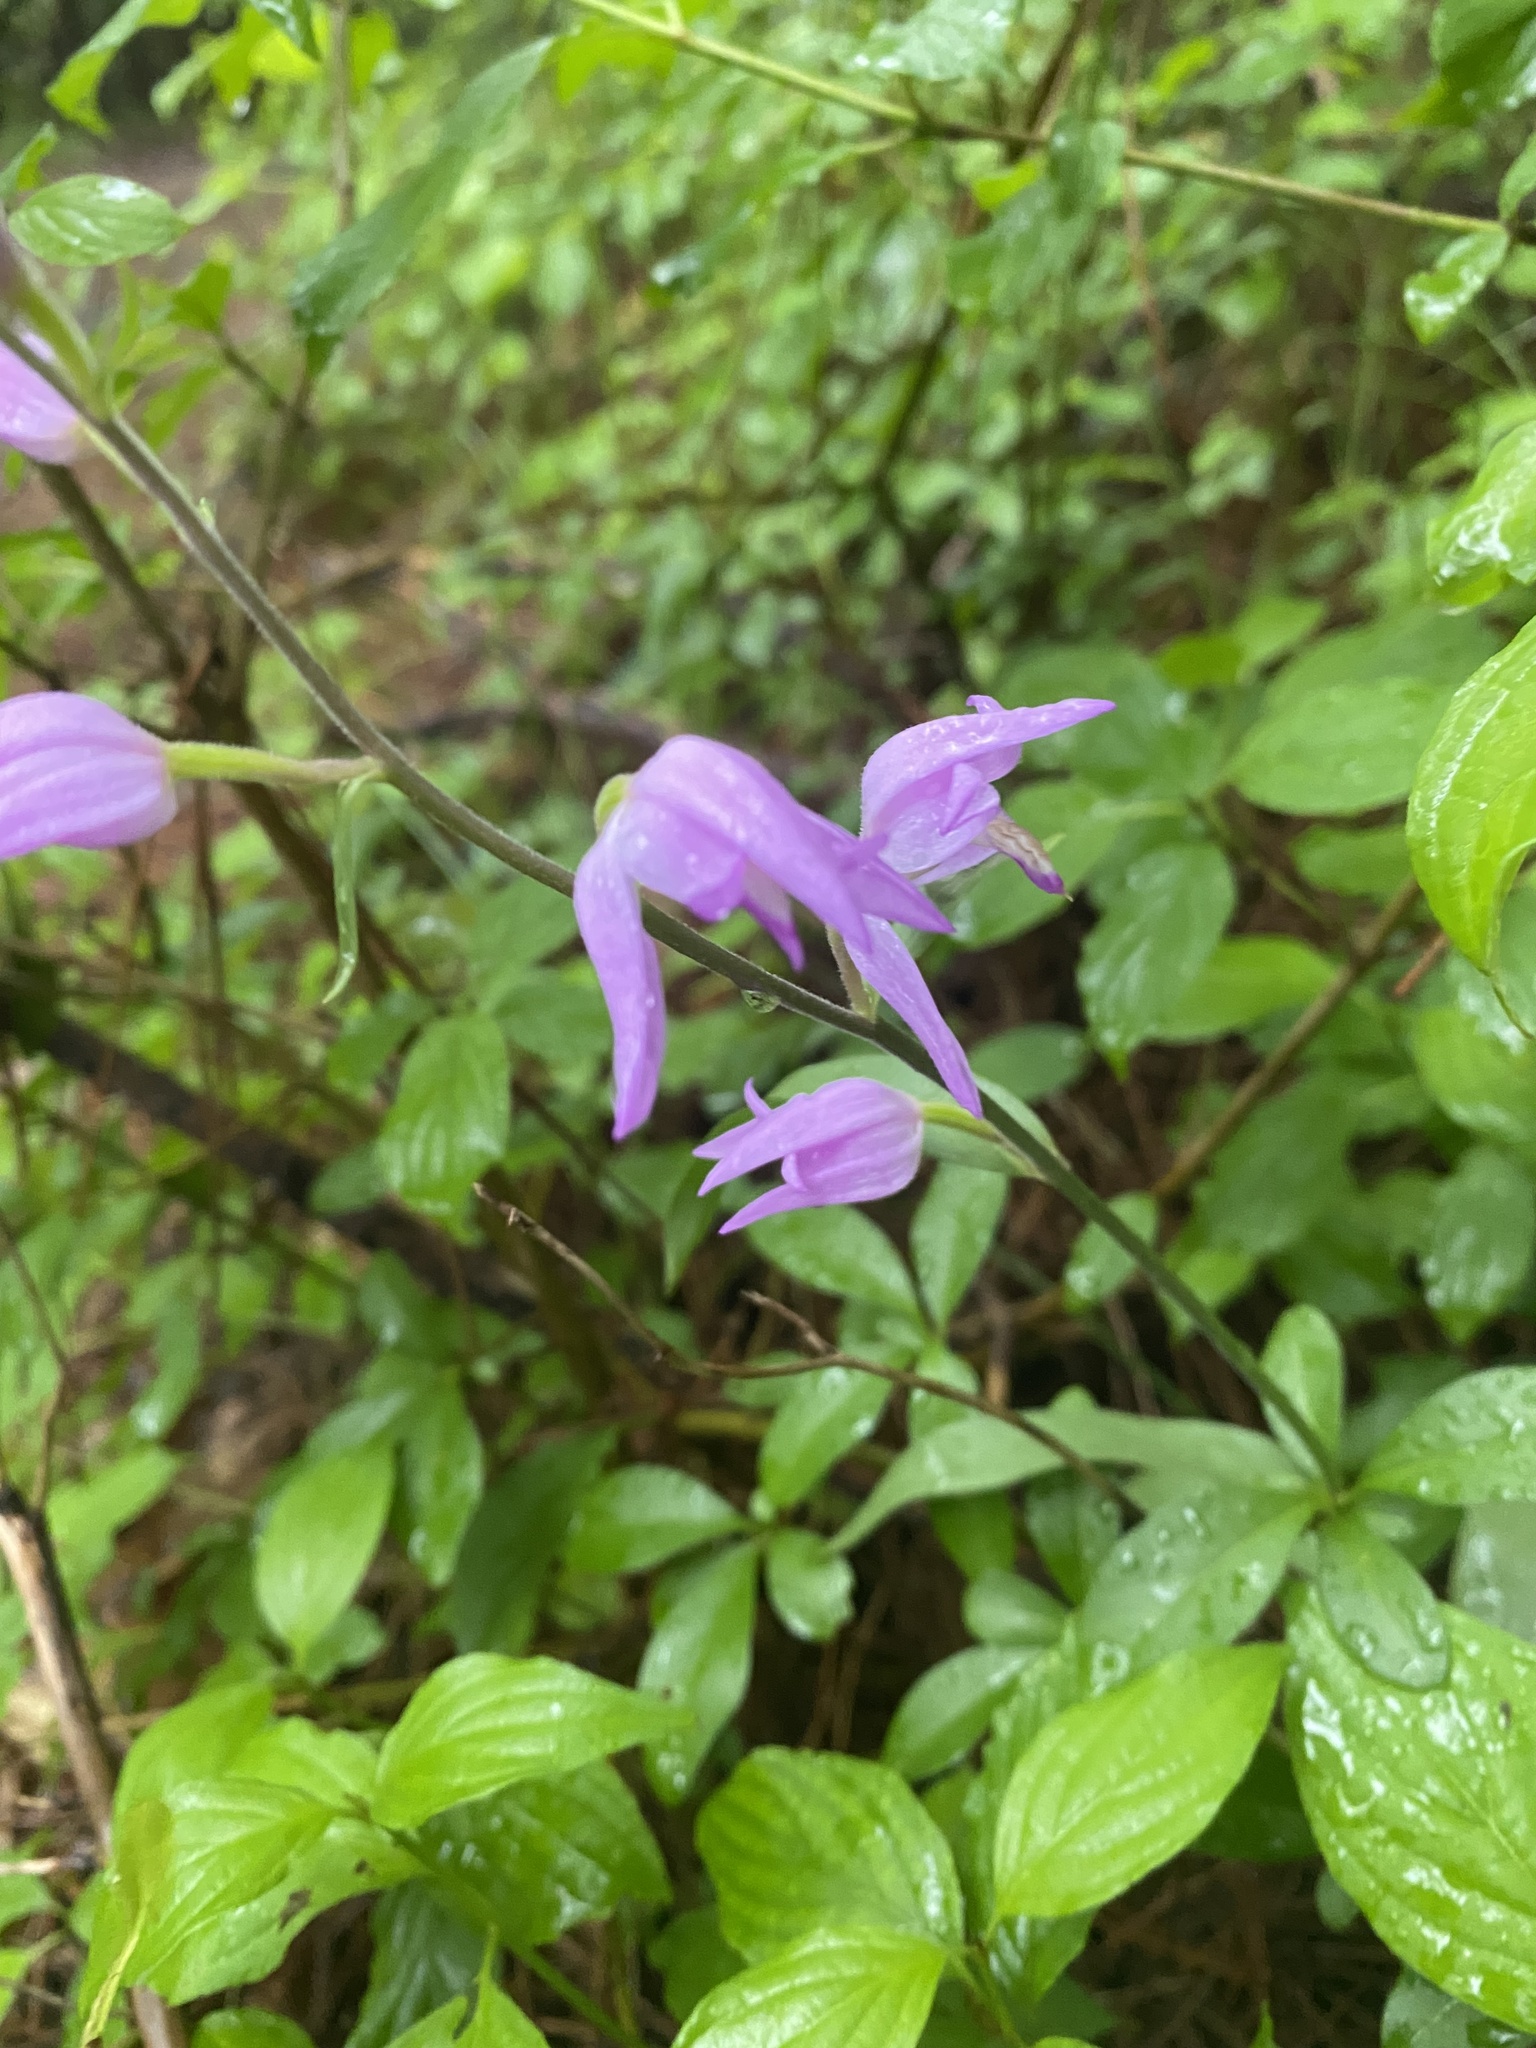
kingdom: Plantae
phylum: Tracheophyta
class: Liliopsida
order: Asparagales
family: Orchidaceae
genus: Cephalanthera
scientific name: Cephalanthera rubra
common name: Red helleborine
